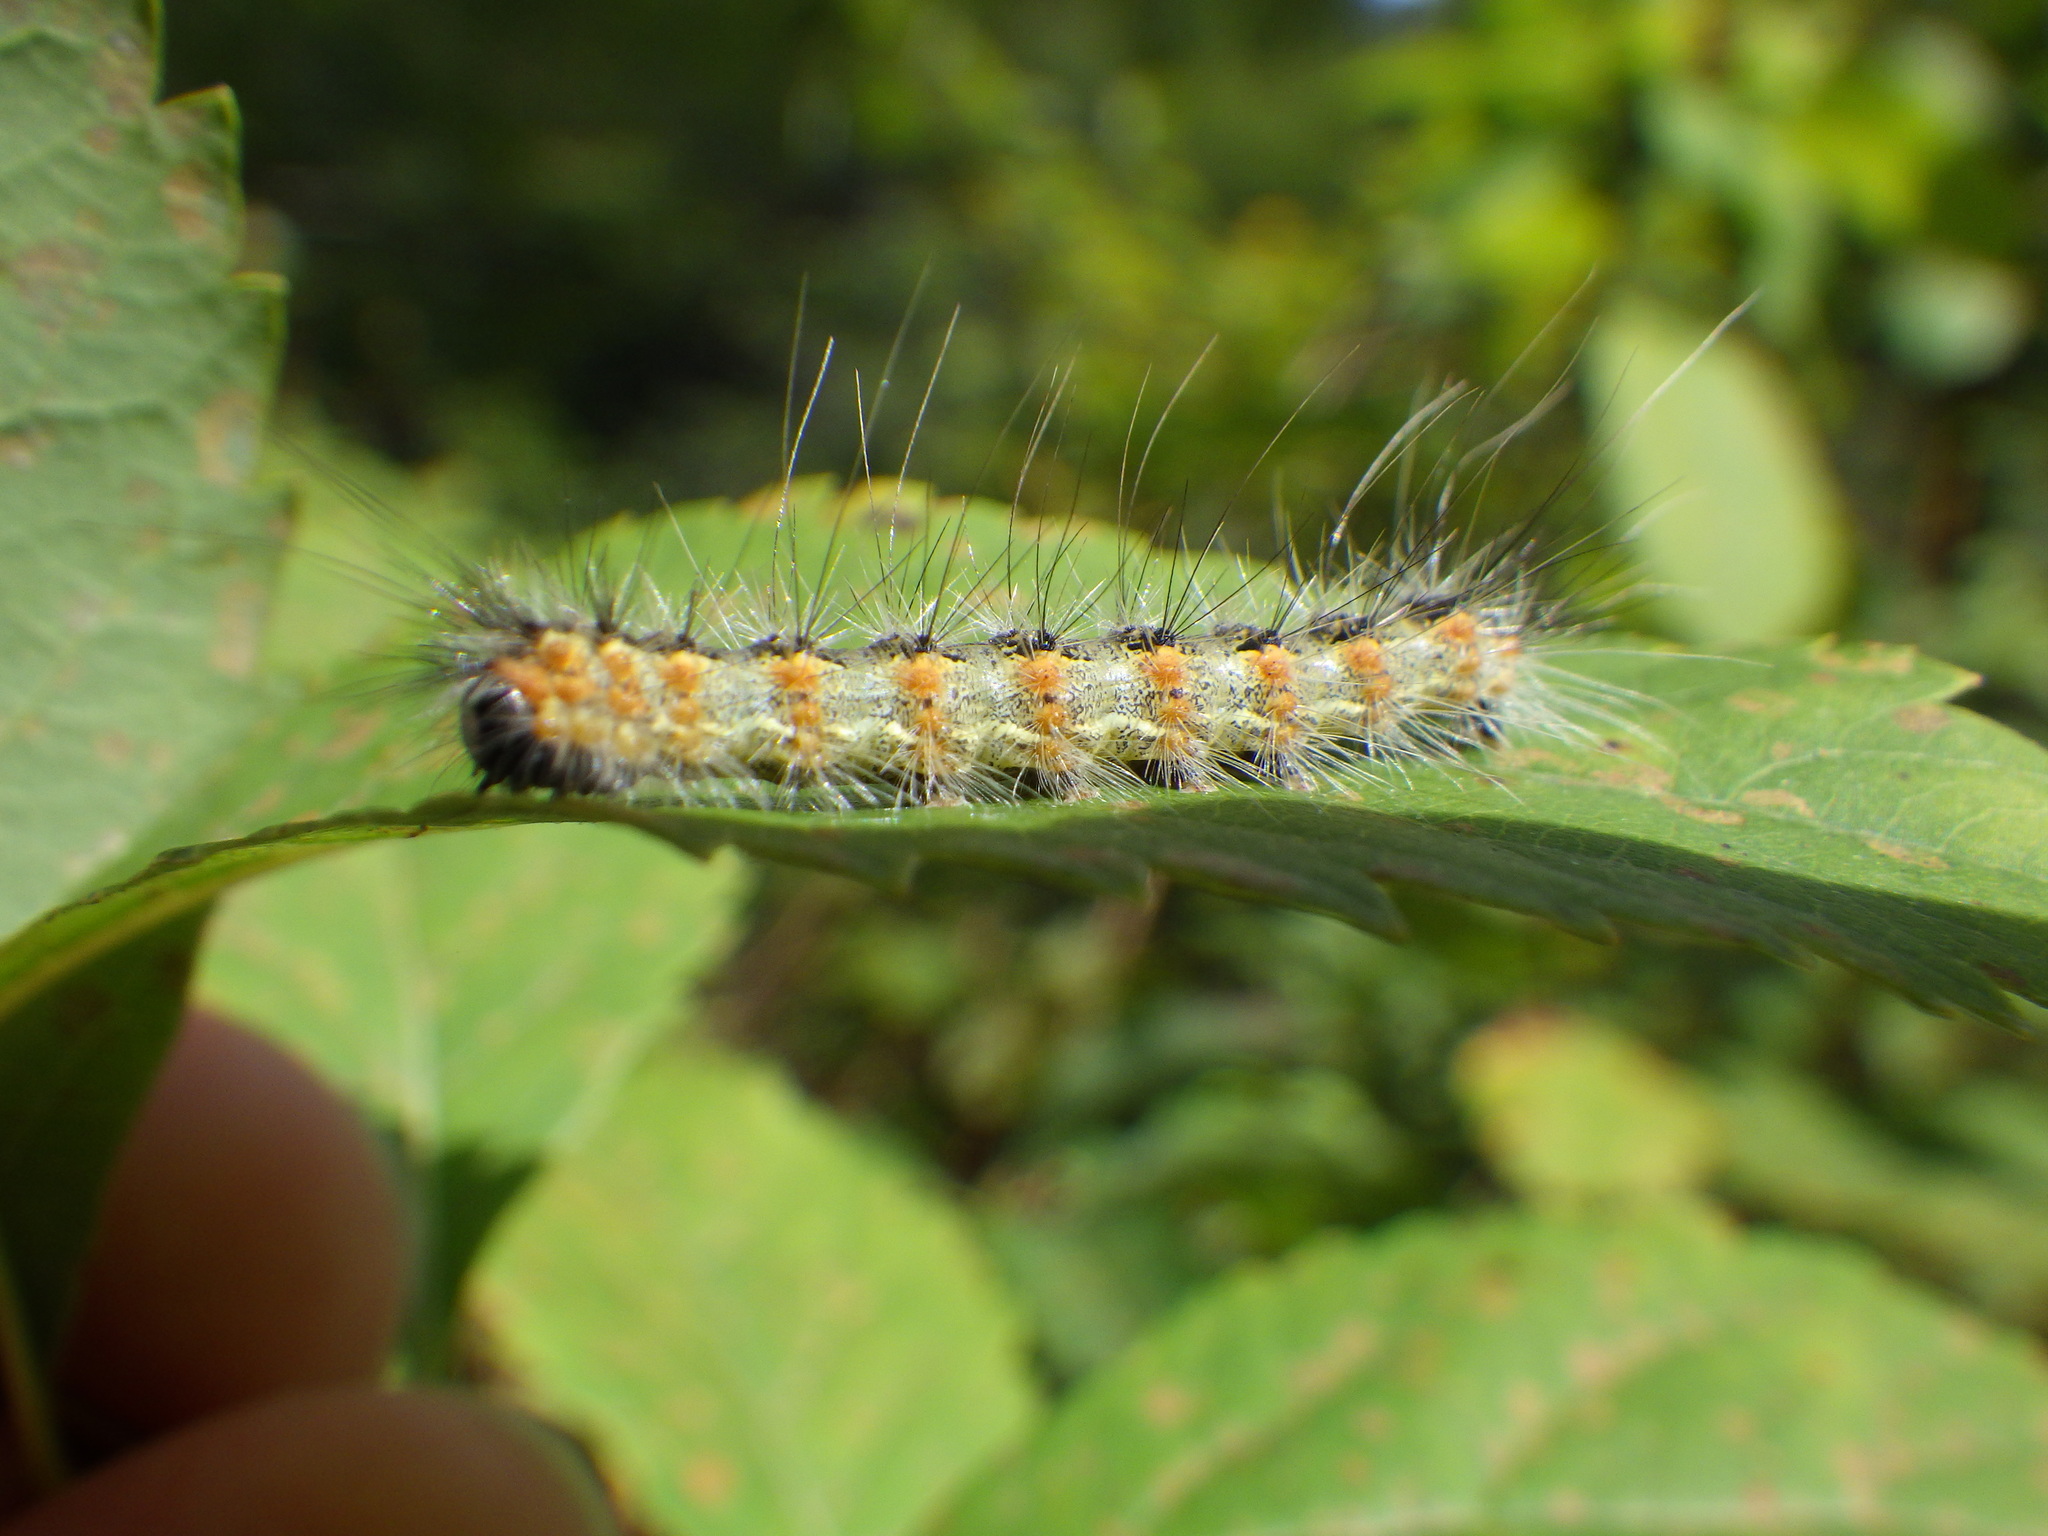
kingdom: Animalia
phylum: Arthropoda
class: Insecta
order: Lepidoptera
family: Erebidae
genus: Hyphantria
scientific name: Hyphantria cunea
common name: American white moth
